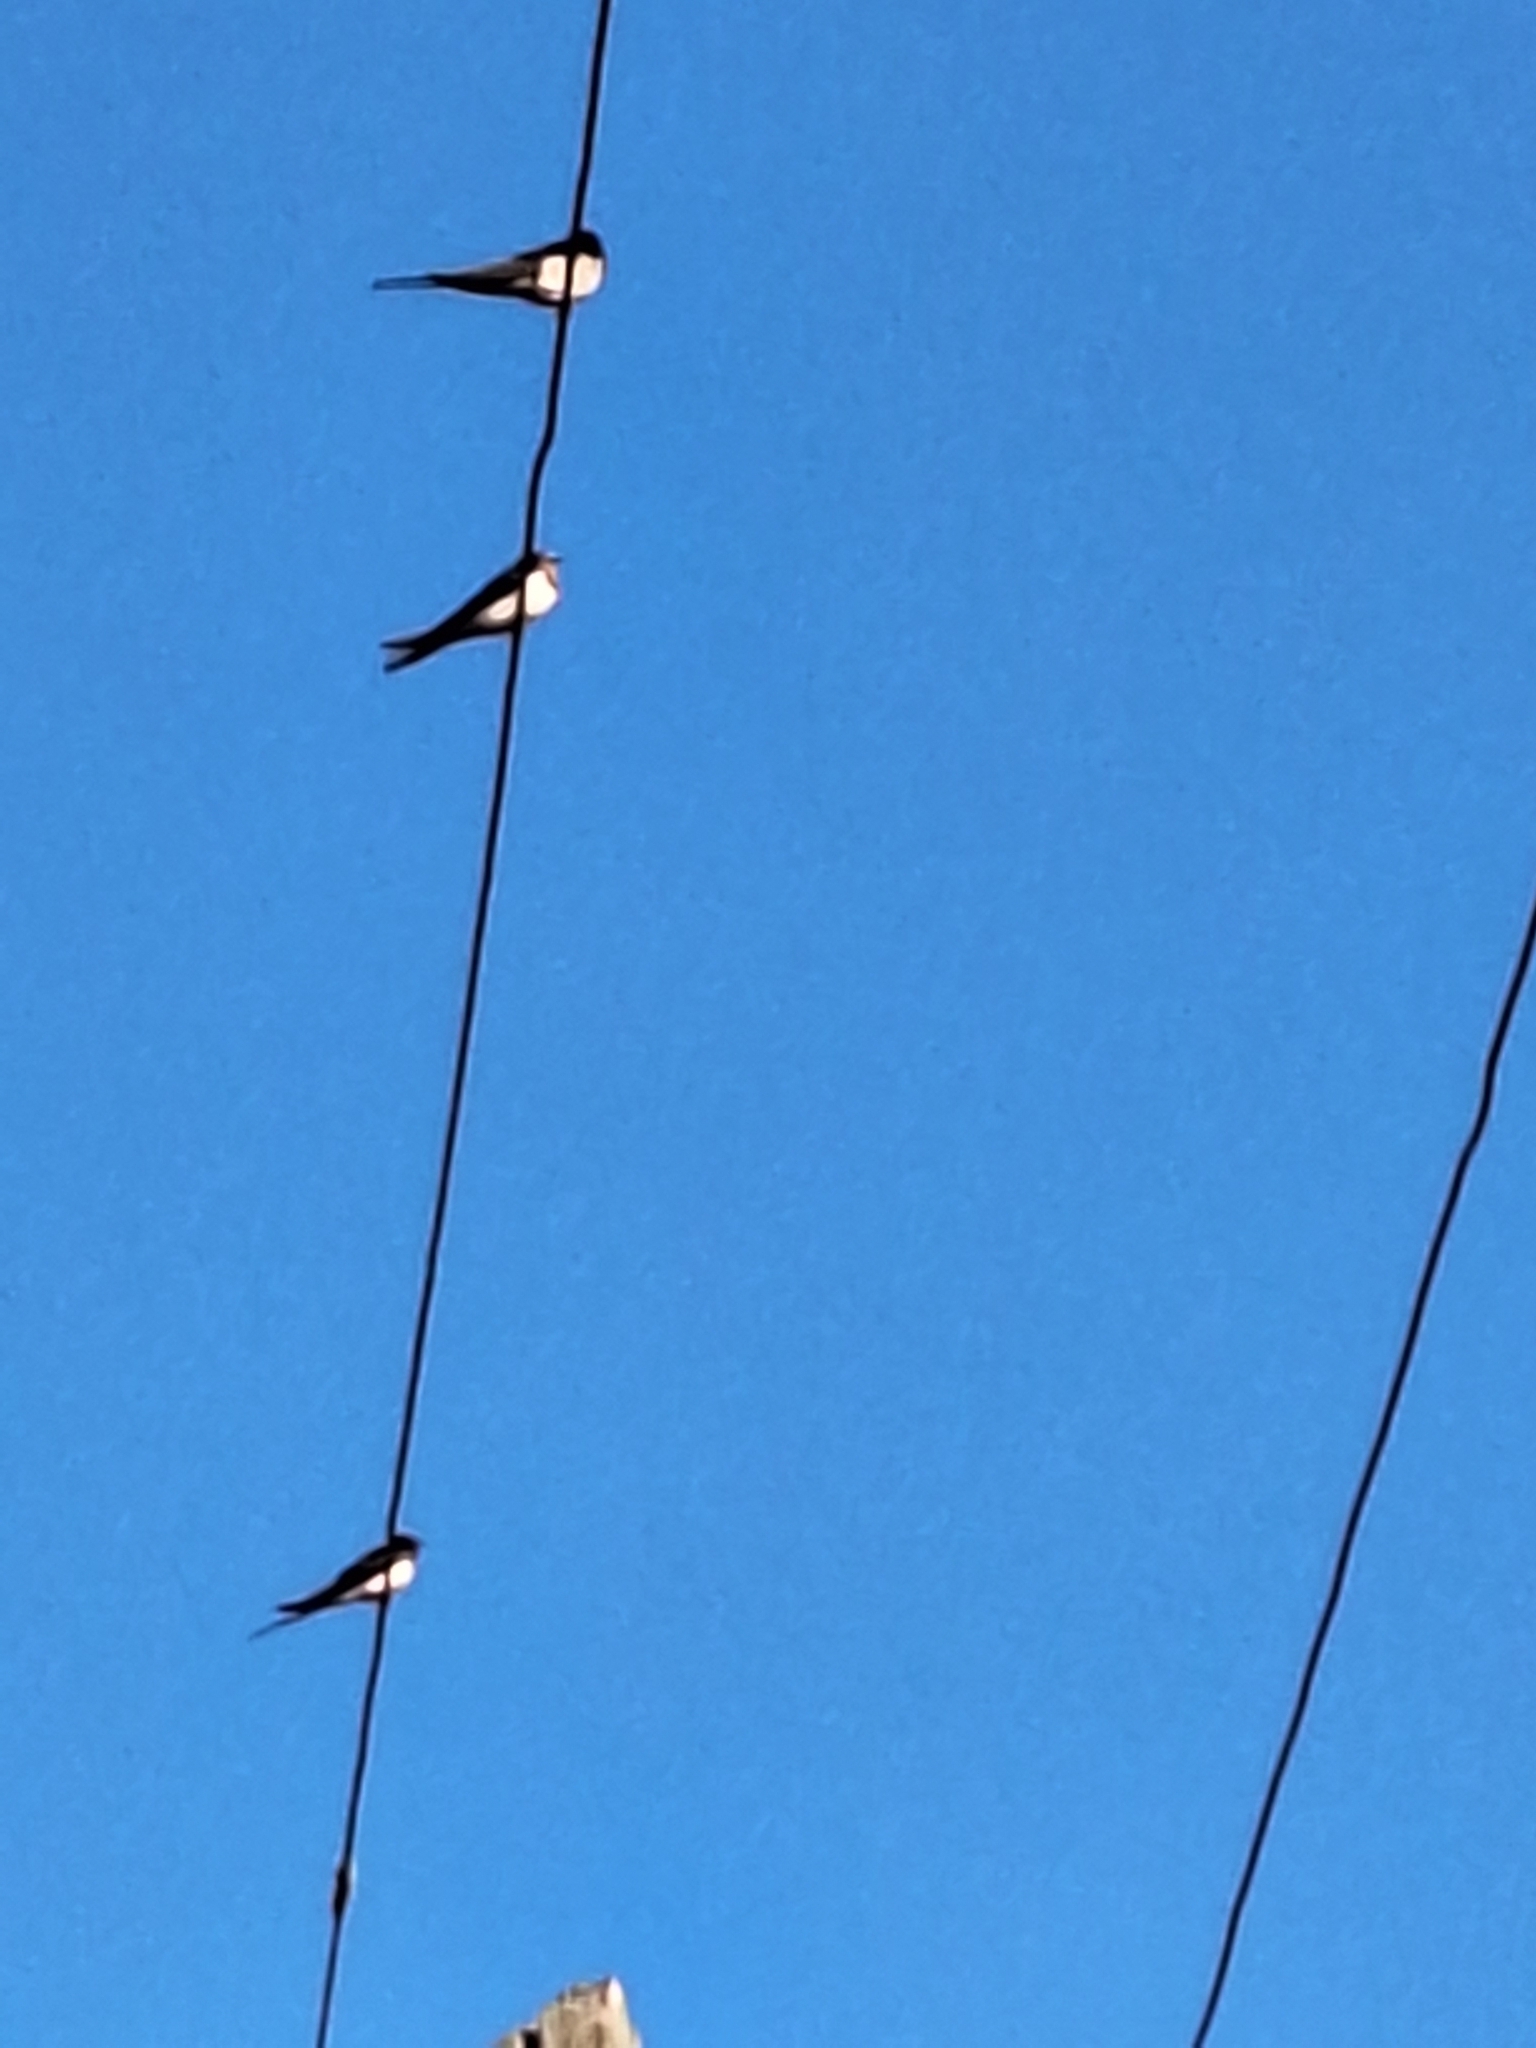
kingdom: Animalia
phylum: Chordata
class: Aves
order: Passeriformes
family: Hirundinidae
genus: Hirundo
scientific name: Hirundo rustica
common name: Barn swallow
